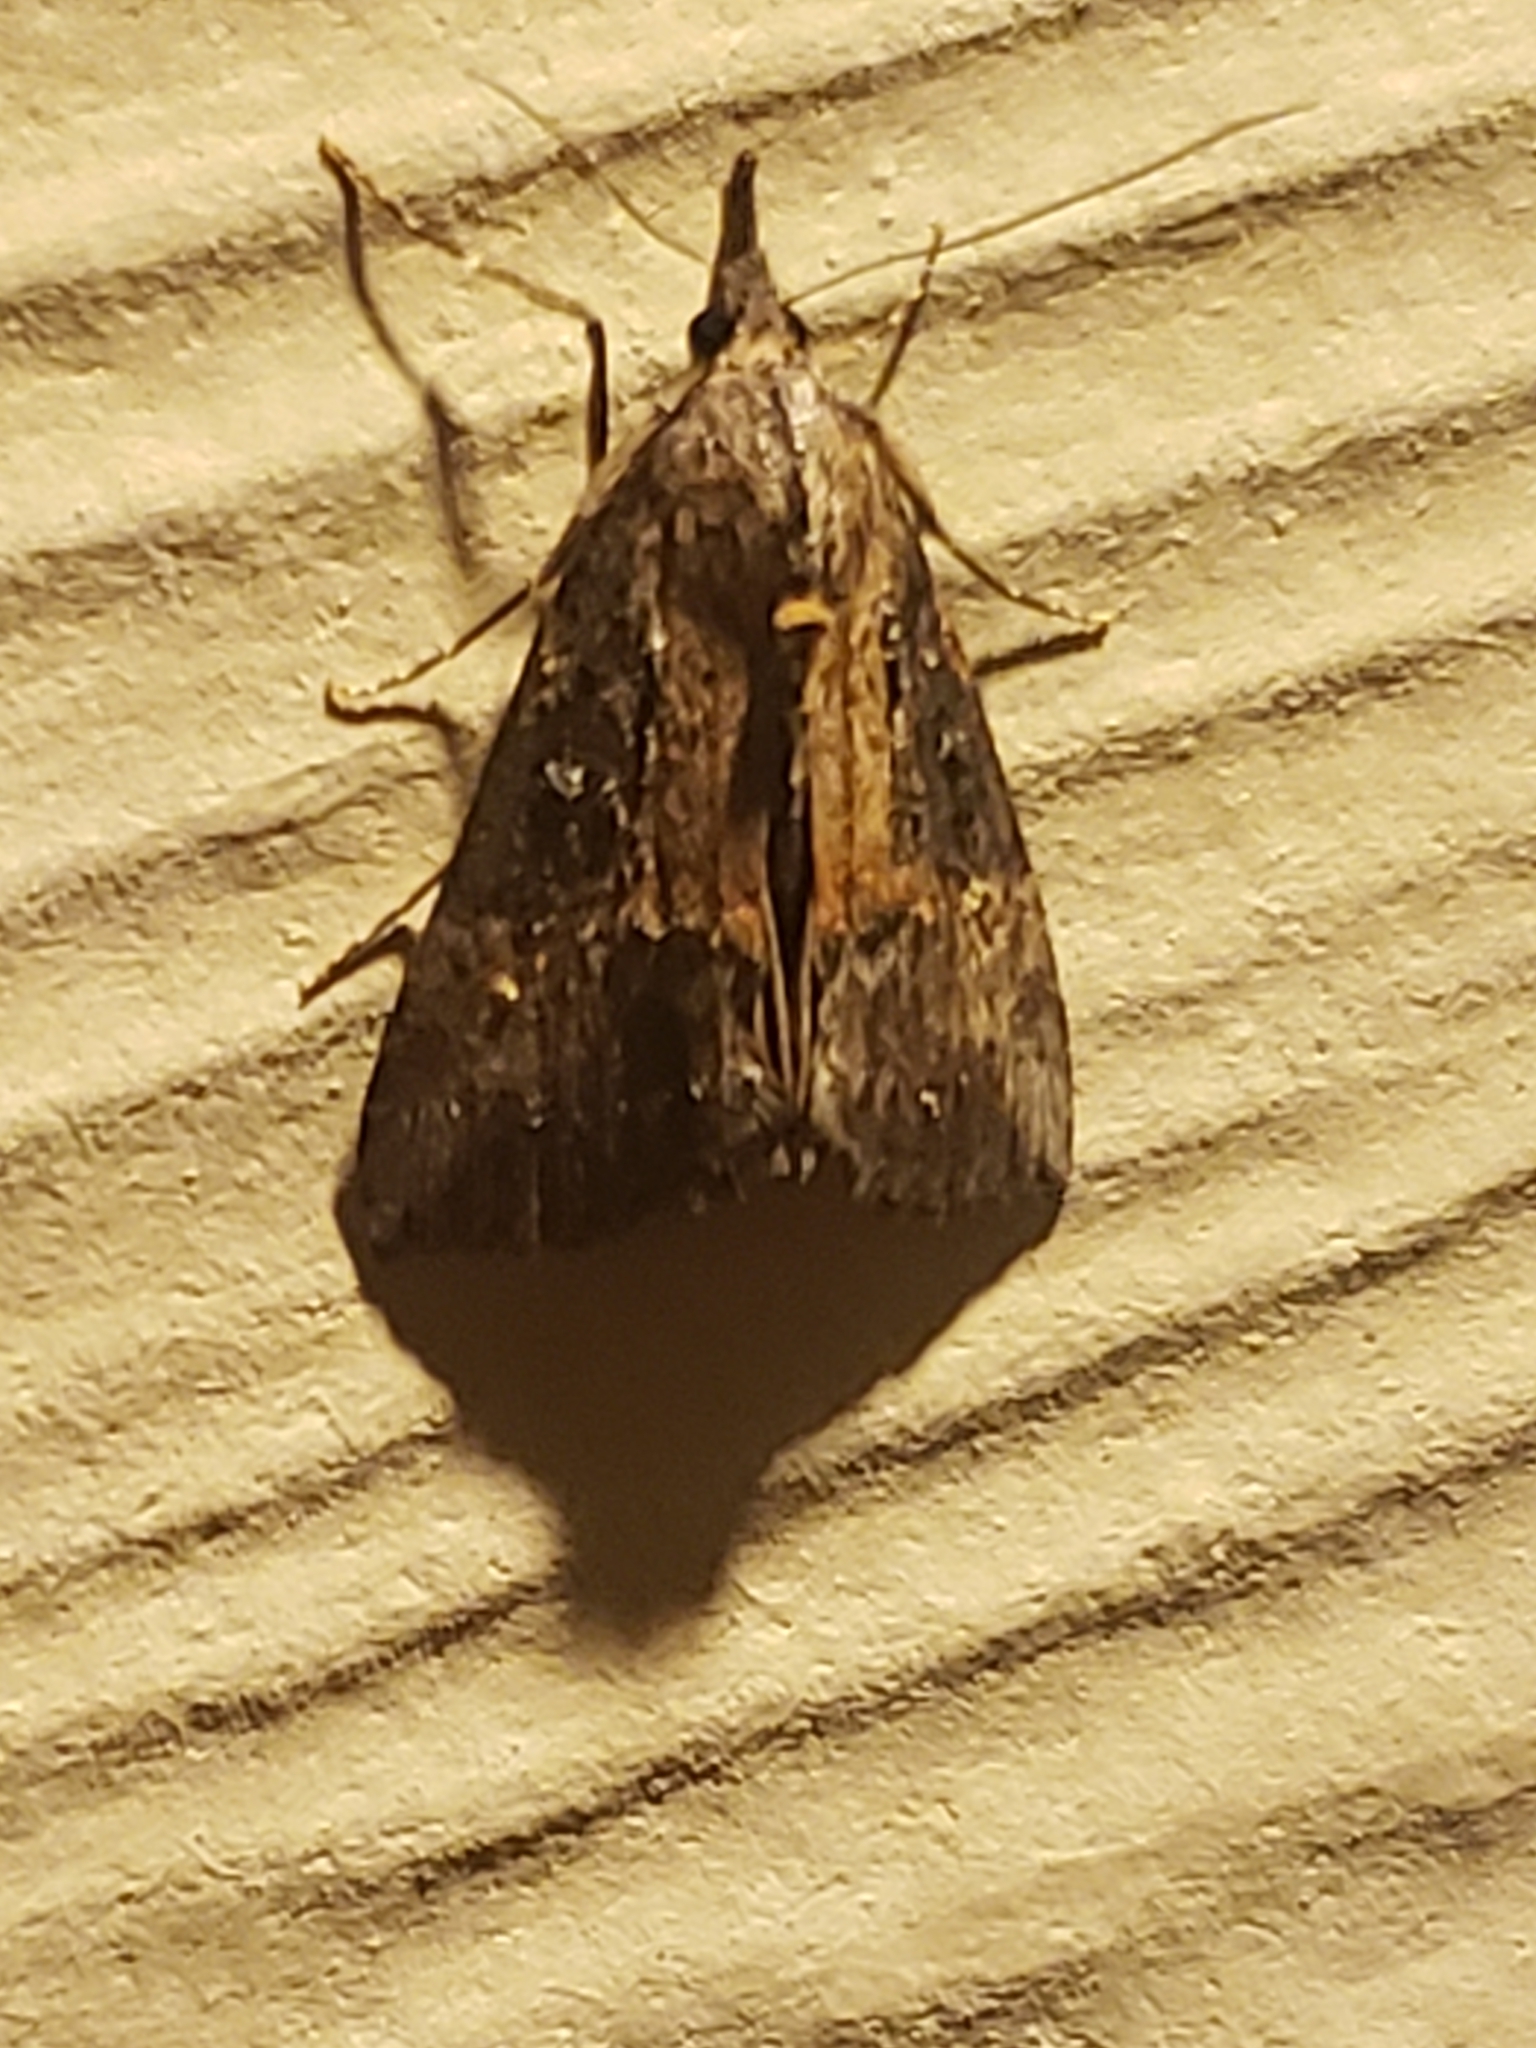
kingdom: Animalia
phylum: Arthropoda
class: Insecta
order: Lepidoptera
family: Erebidae
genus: Hypena
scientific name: Hypena scabra
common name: Green cloverworm
